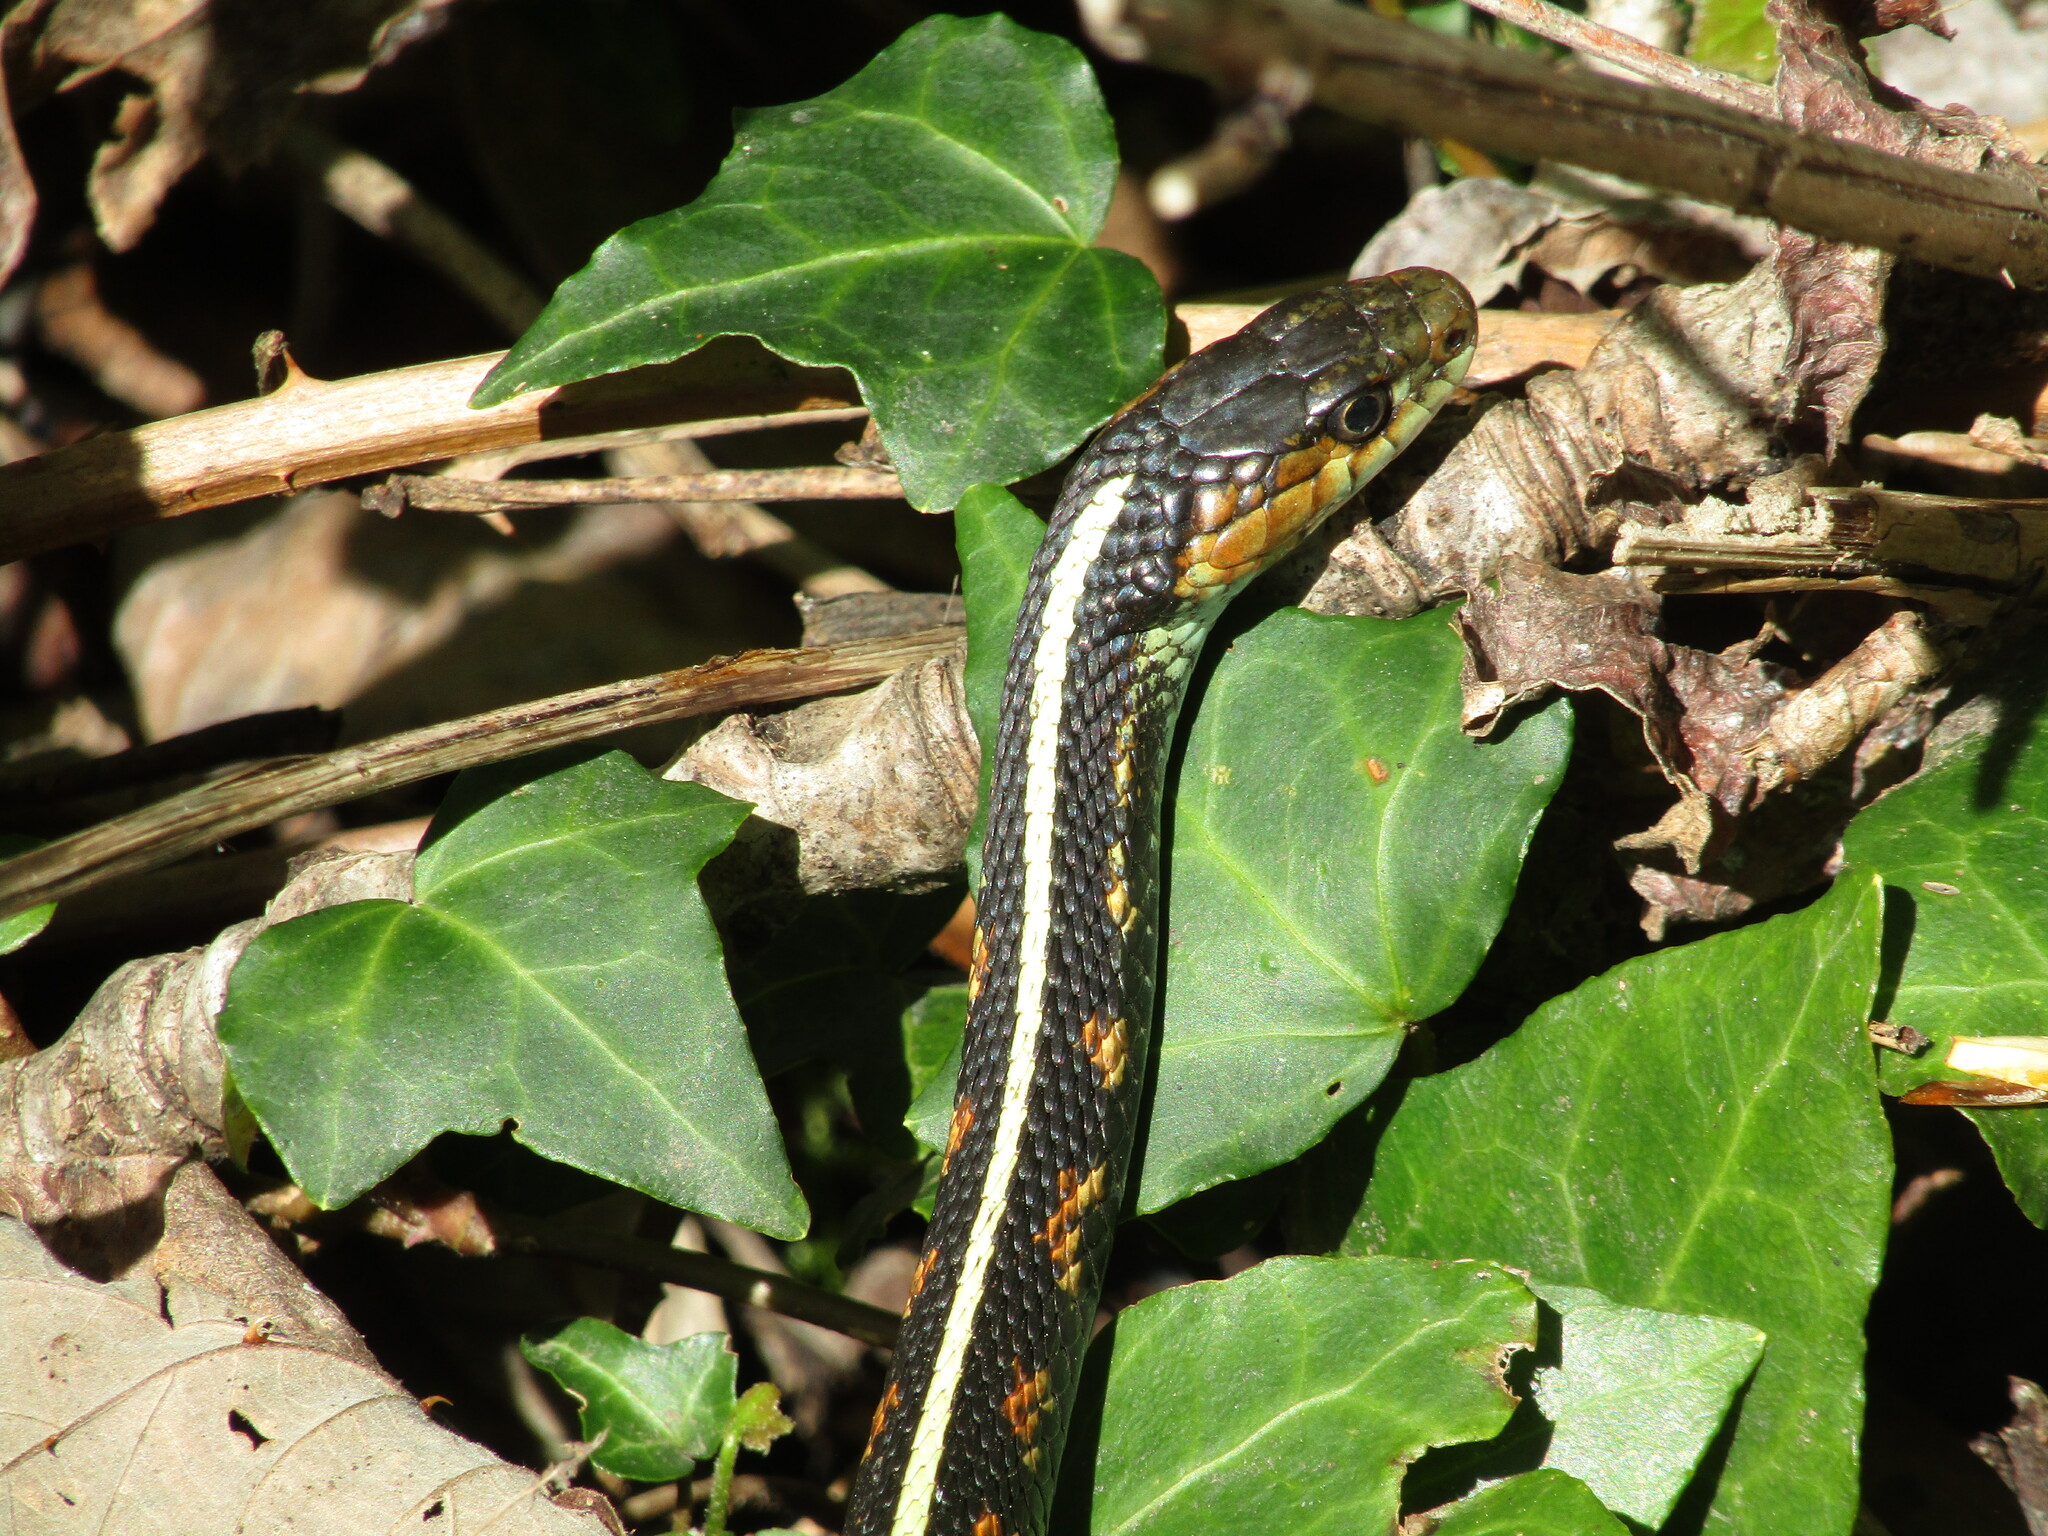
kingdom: Animalia
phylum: Chordata
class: Squamata
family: Colubridae
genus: Thamnophis
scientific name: Thamnophis sirtalis
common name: Common garter snake
